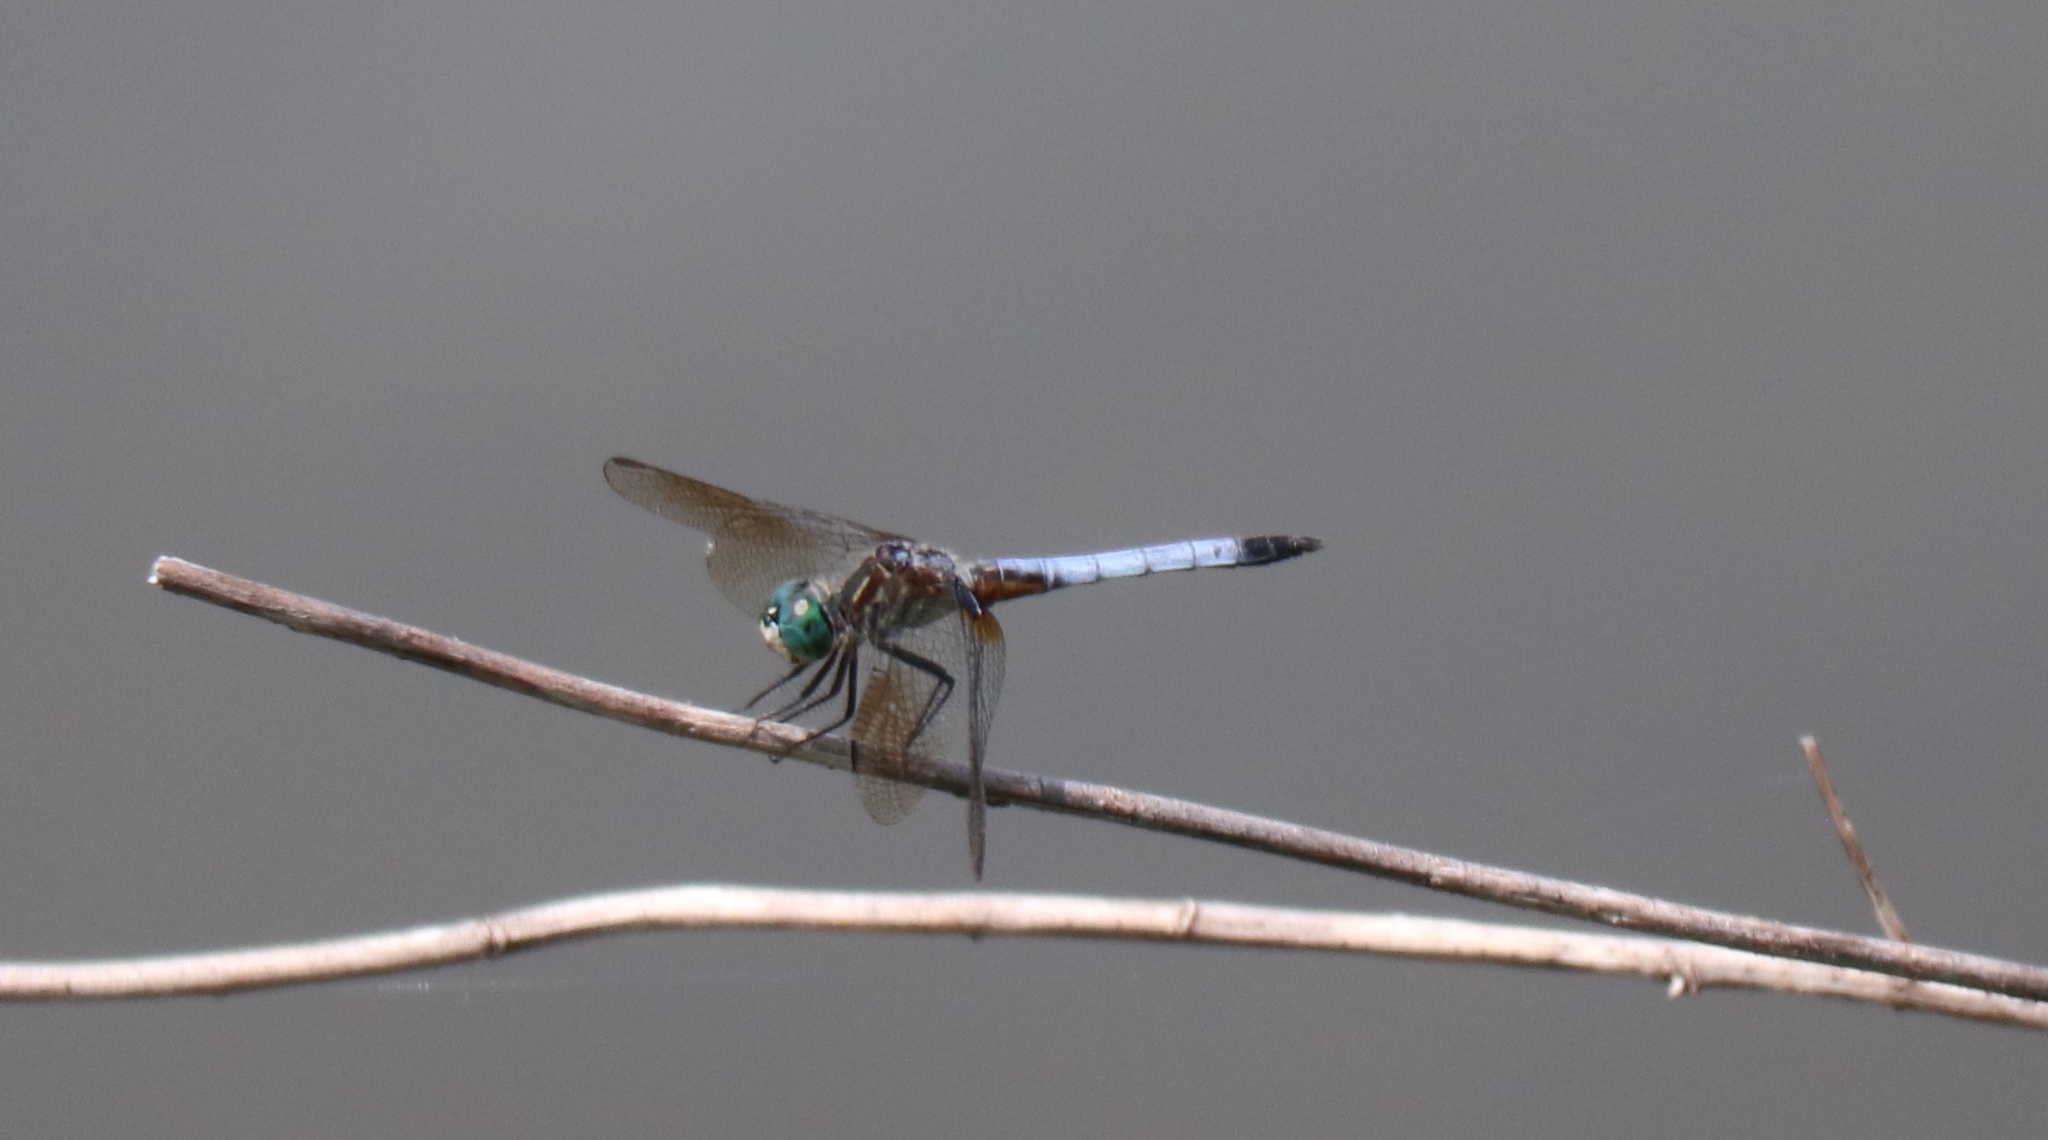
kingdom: Animalia
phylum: Arthropoda
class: Insecta
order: Odonata
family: Libellulidae
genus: Pachydiplax
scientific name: Pachydiplax longipennis
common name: Blue dasher
